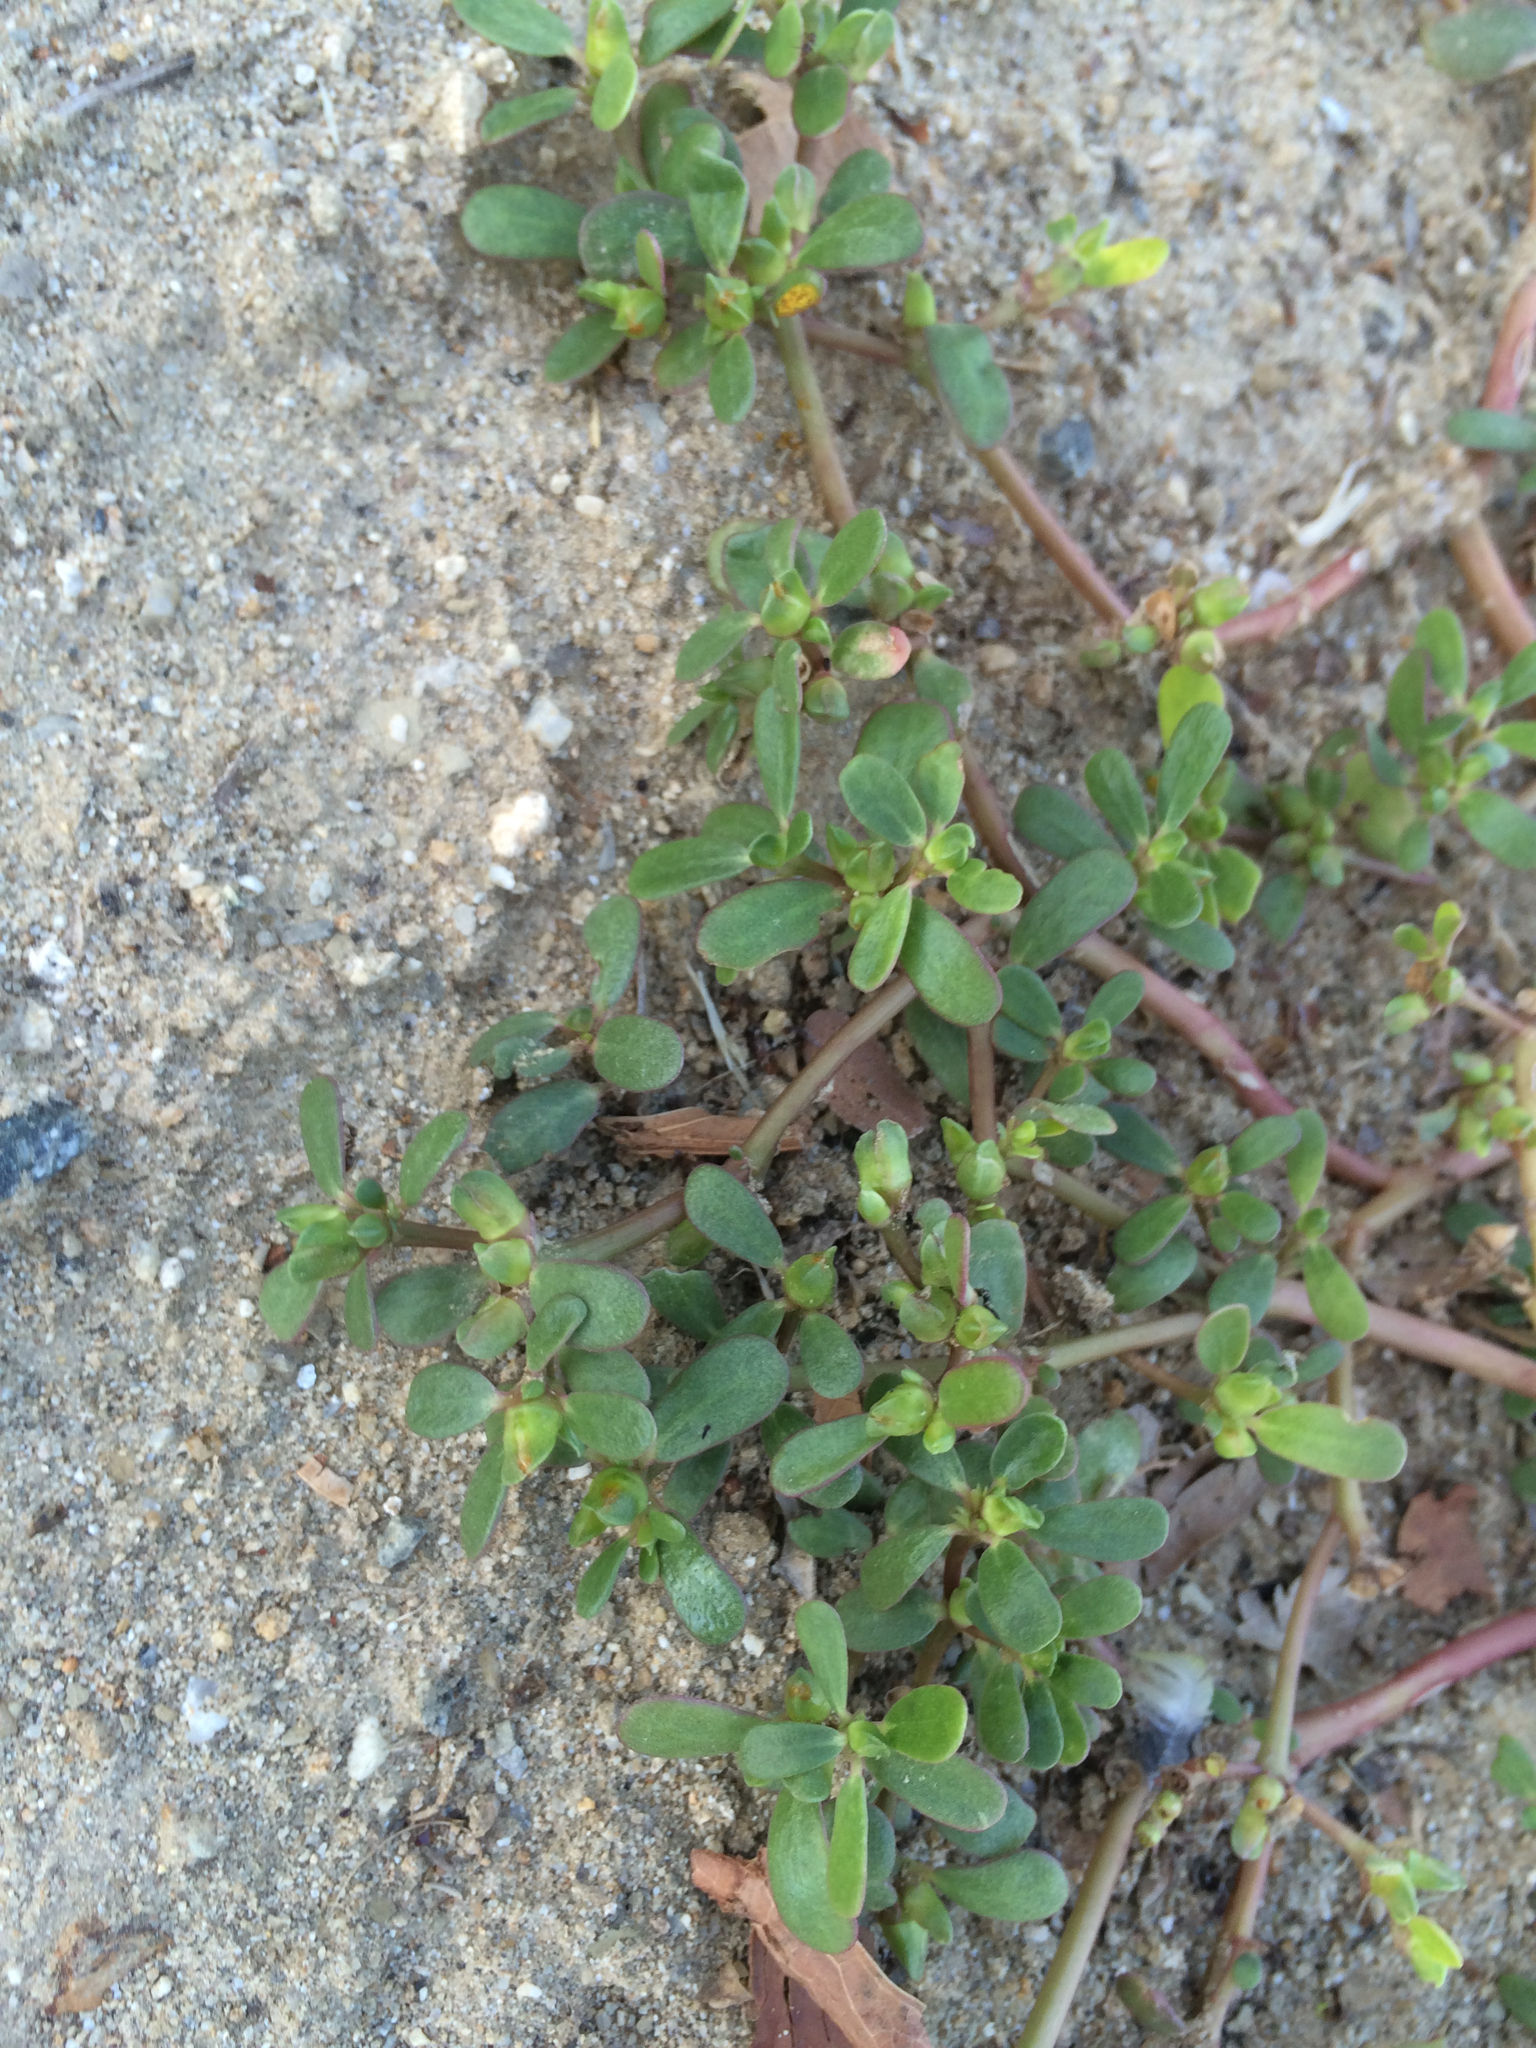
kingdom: Plantae
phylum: Tracheophyta
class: Magnoliopsida
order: Caryophyllales
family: Portulacaceae
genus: Portulaca
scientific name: Portulaca oleracea
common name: Common purslane
